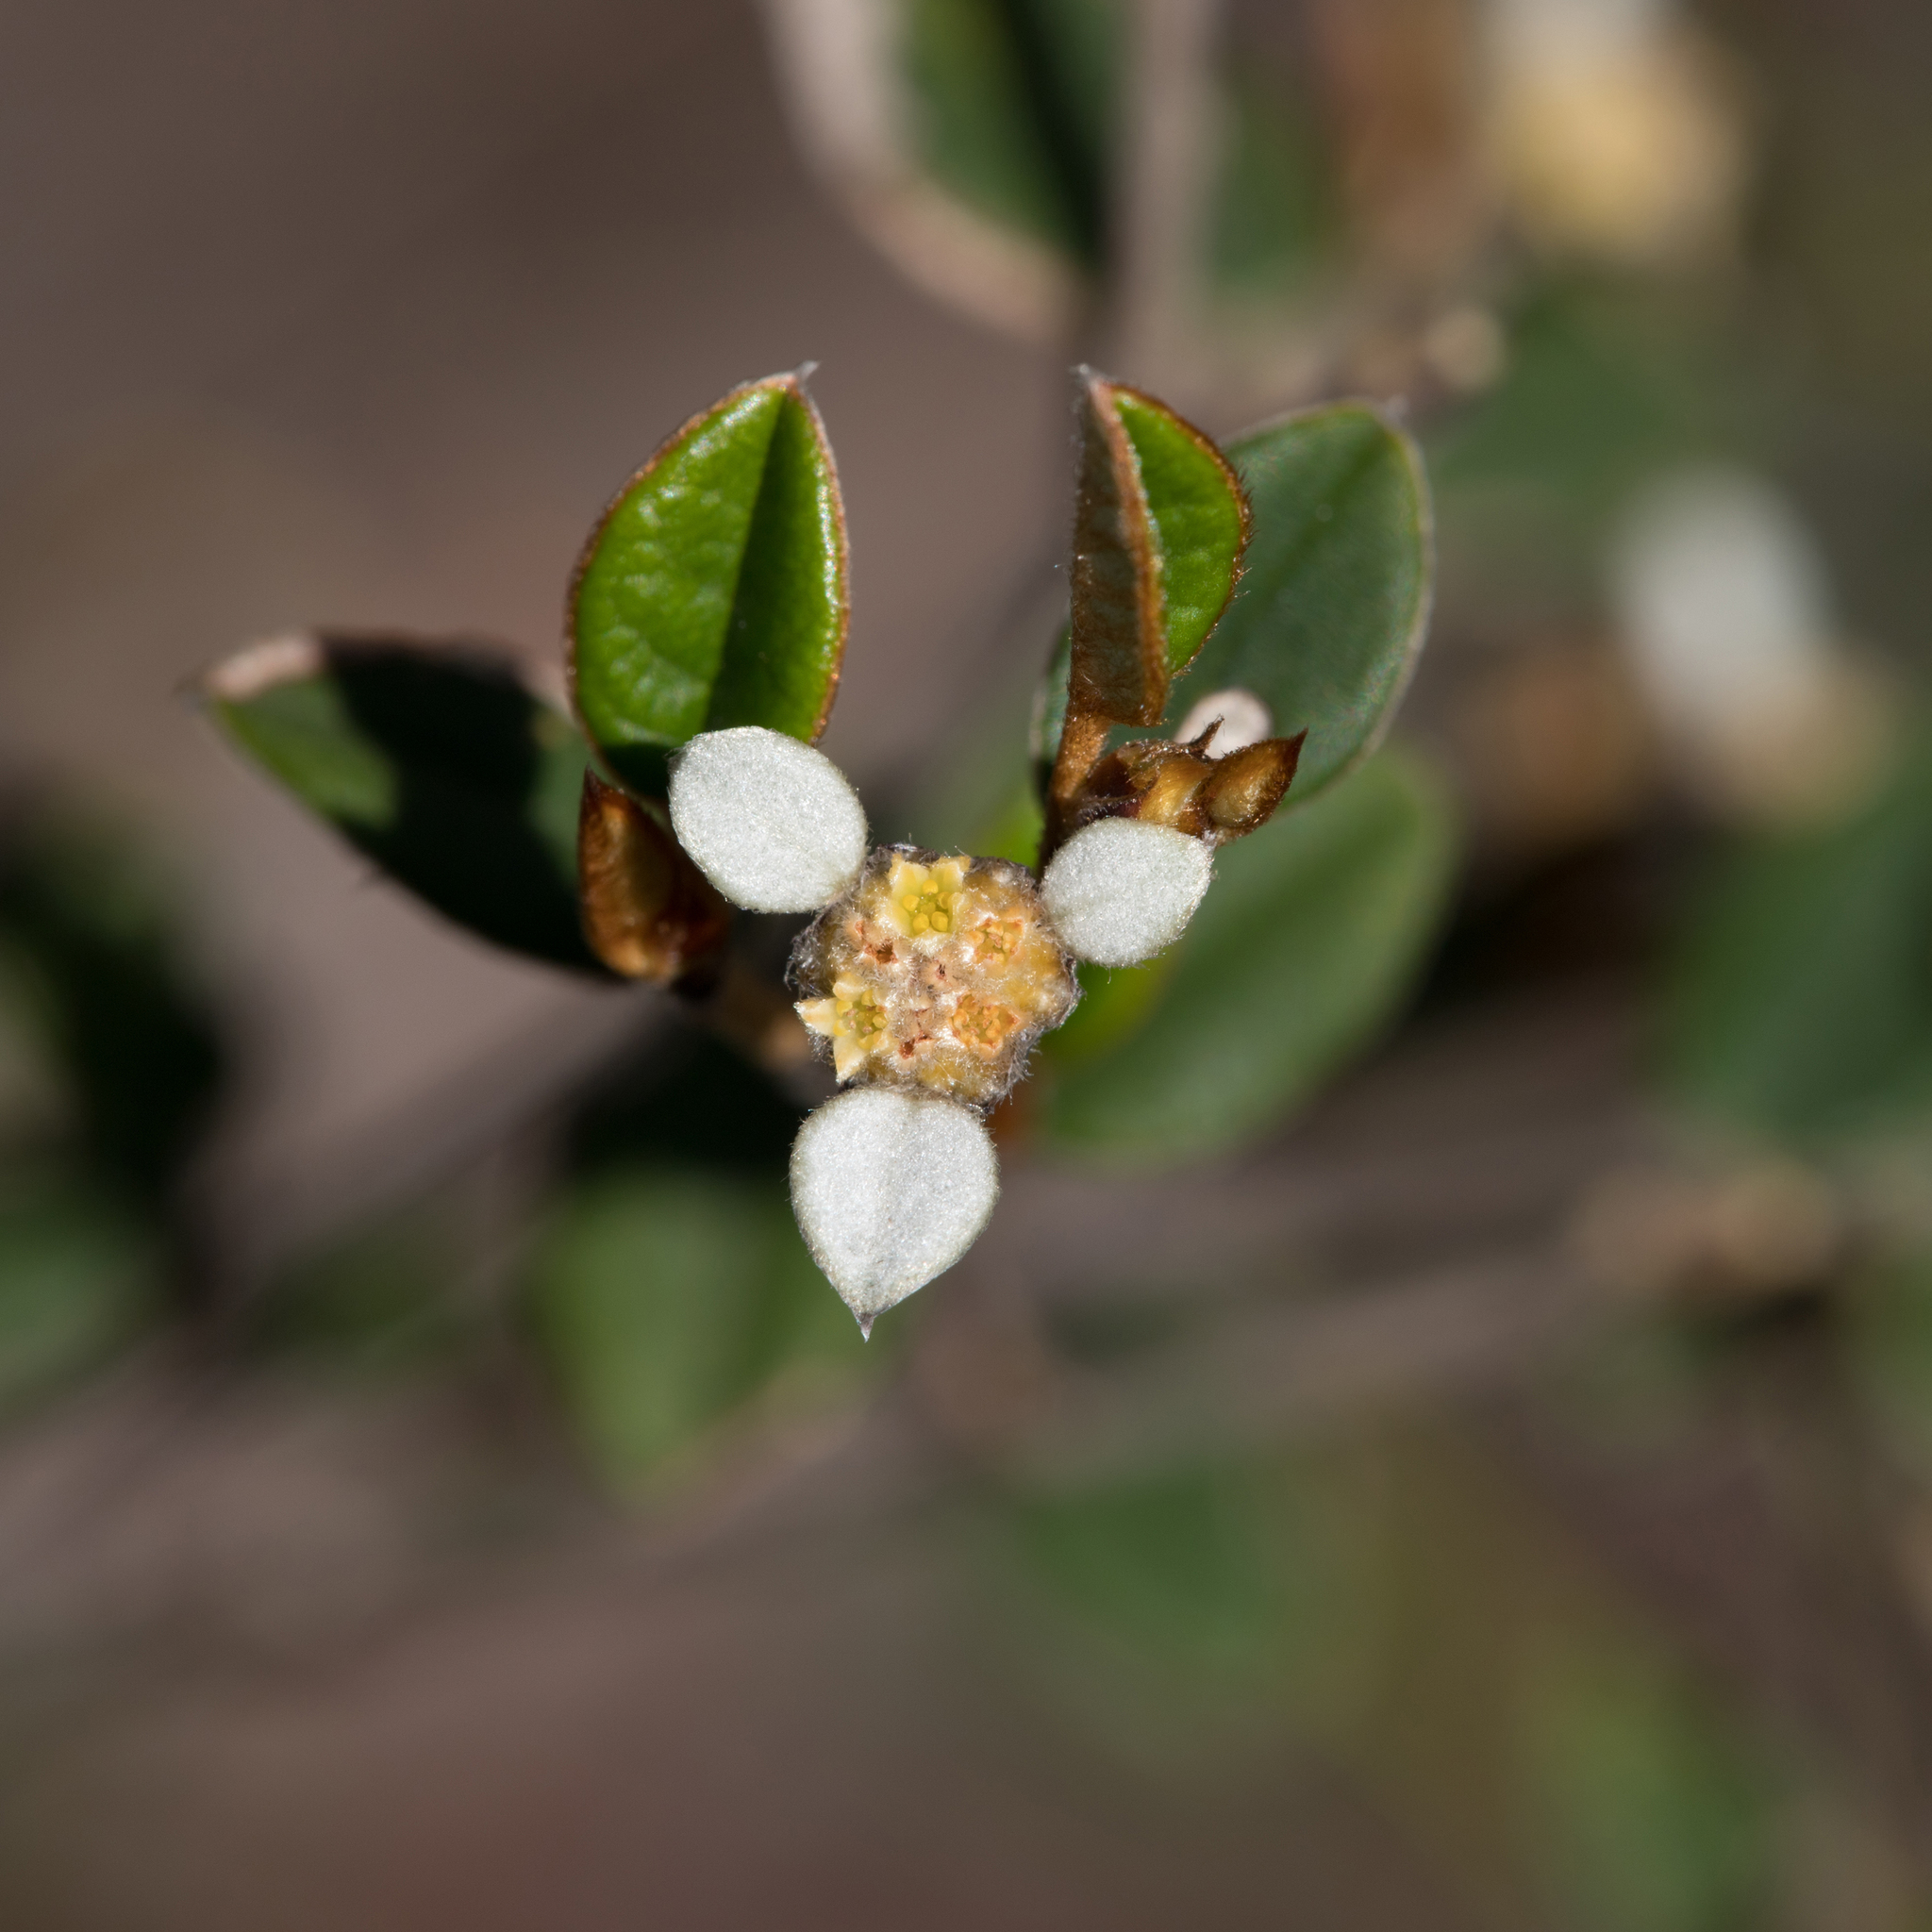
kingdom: Plantae
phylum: Tracheophyta
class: Magnoliopsida
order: Rosales
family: Rhamnaceae
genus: Spyridium
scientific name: Spyridium thymifolium
